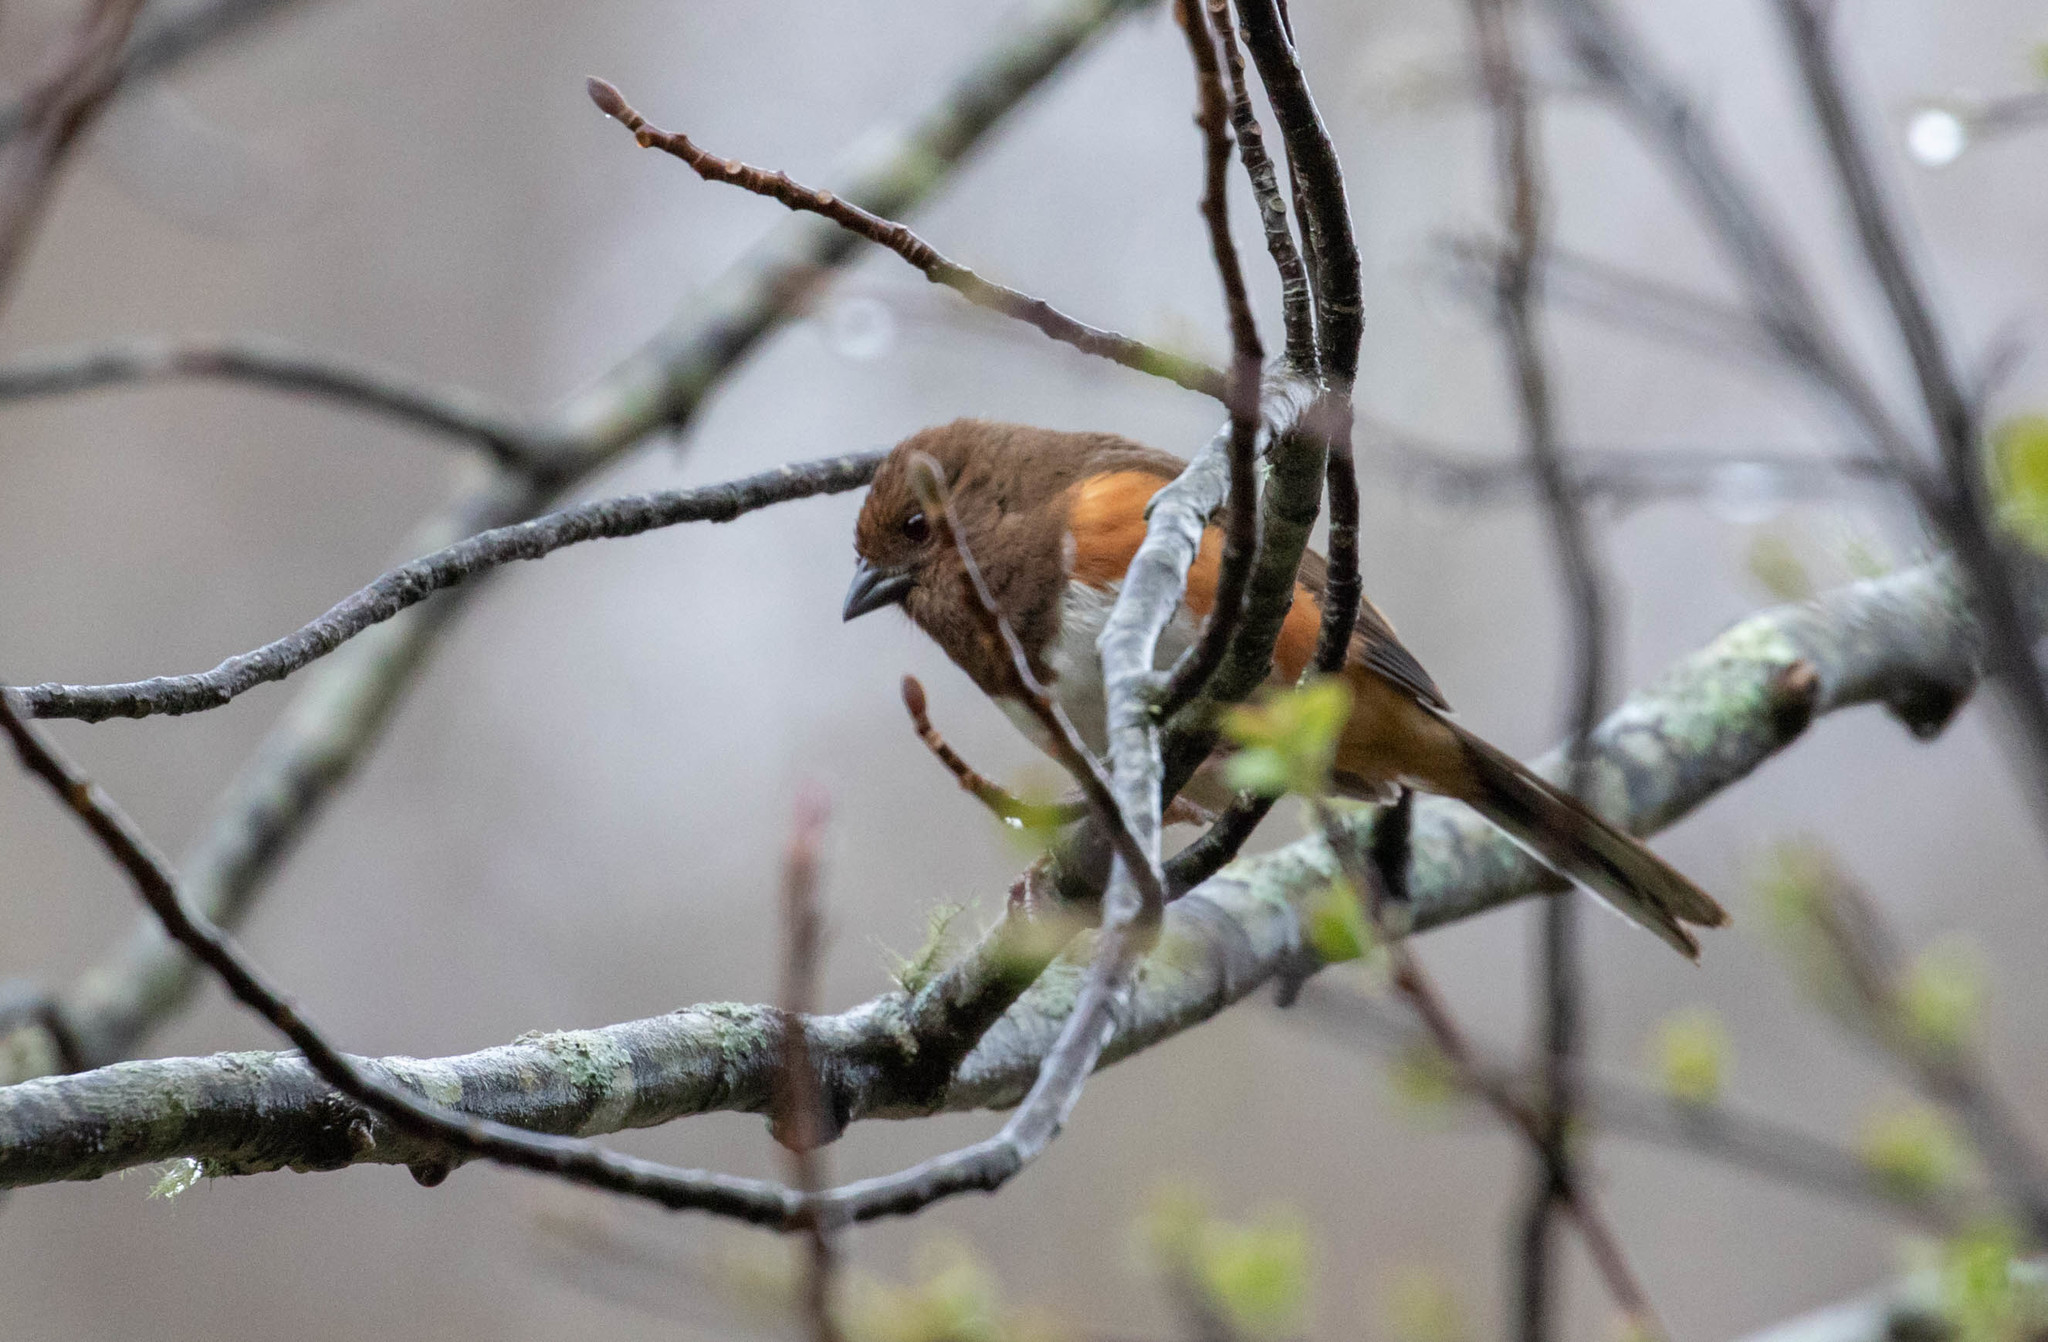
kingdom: Animalia
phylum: Chordata
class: Aves
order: Passeriformes
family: Passerellidae
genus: Pipilo
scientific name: Pipilo erythrophthalmus
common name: Eastern towhee
